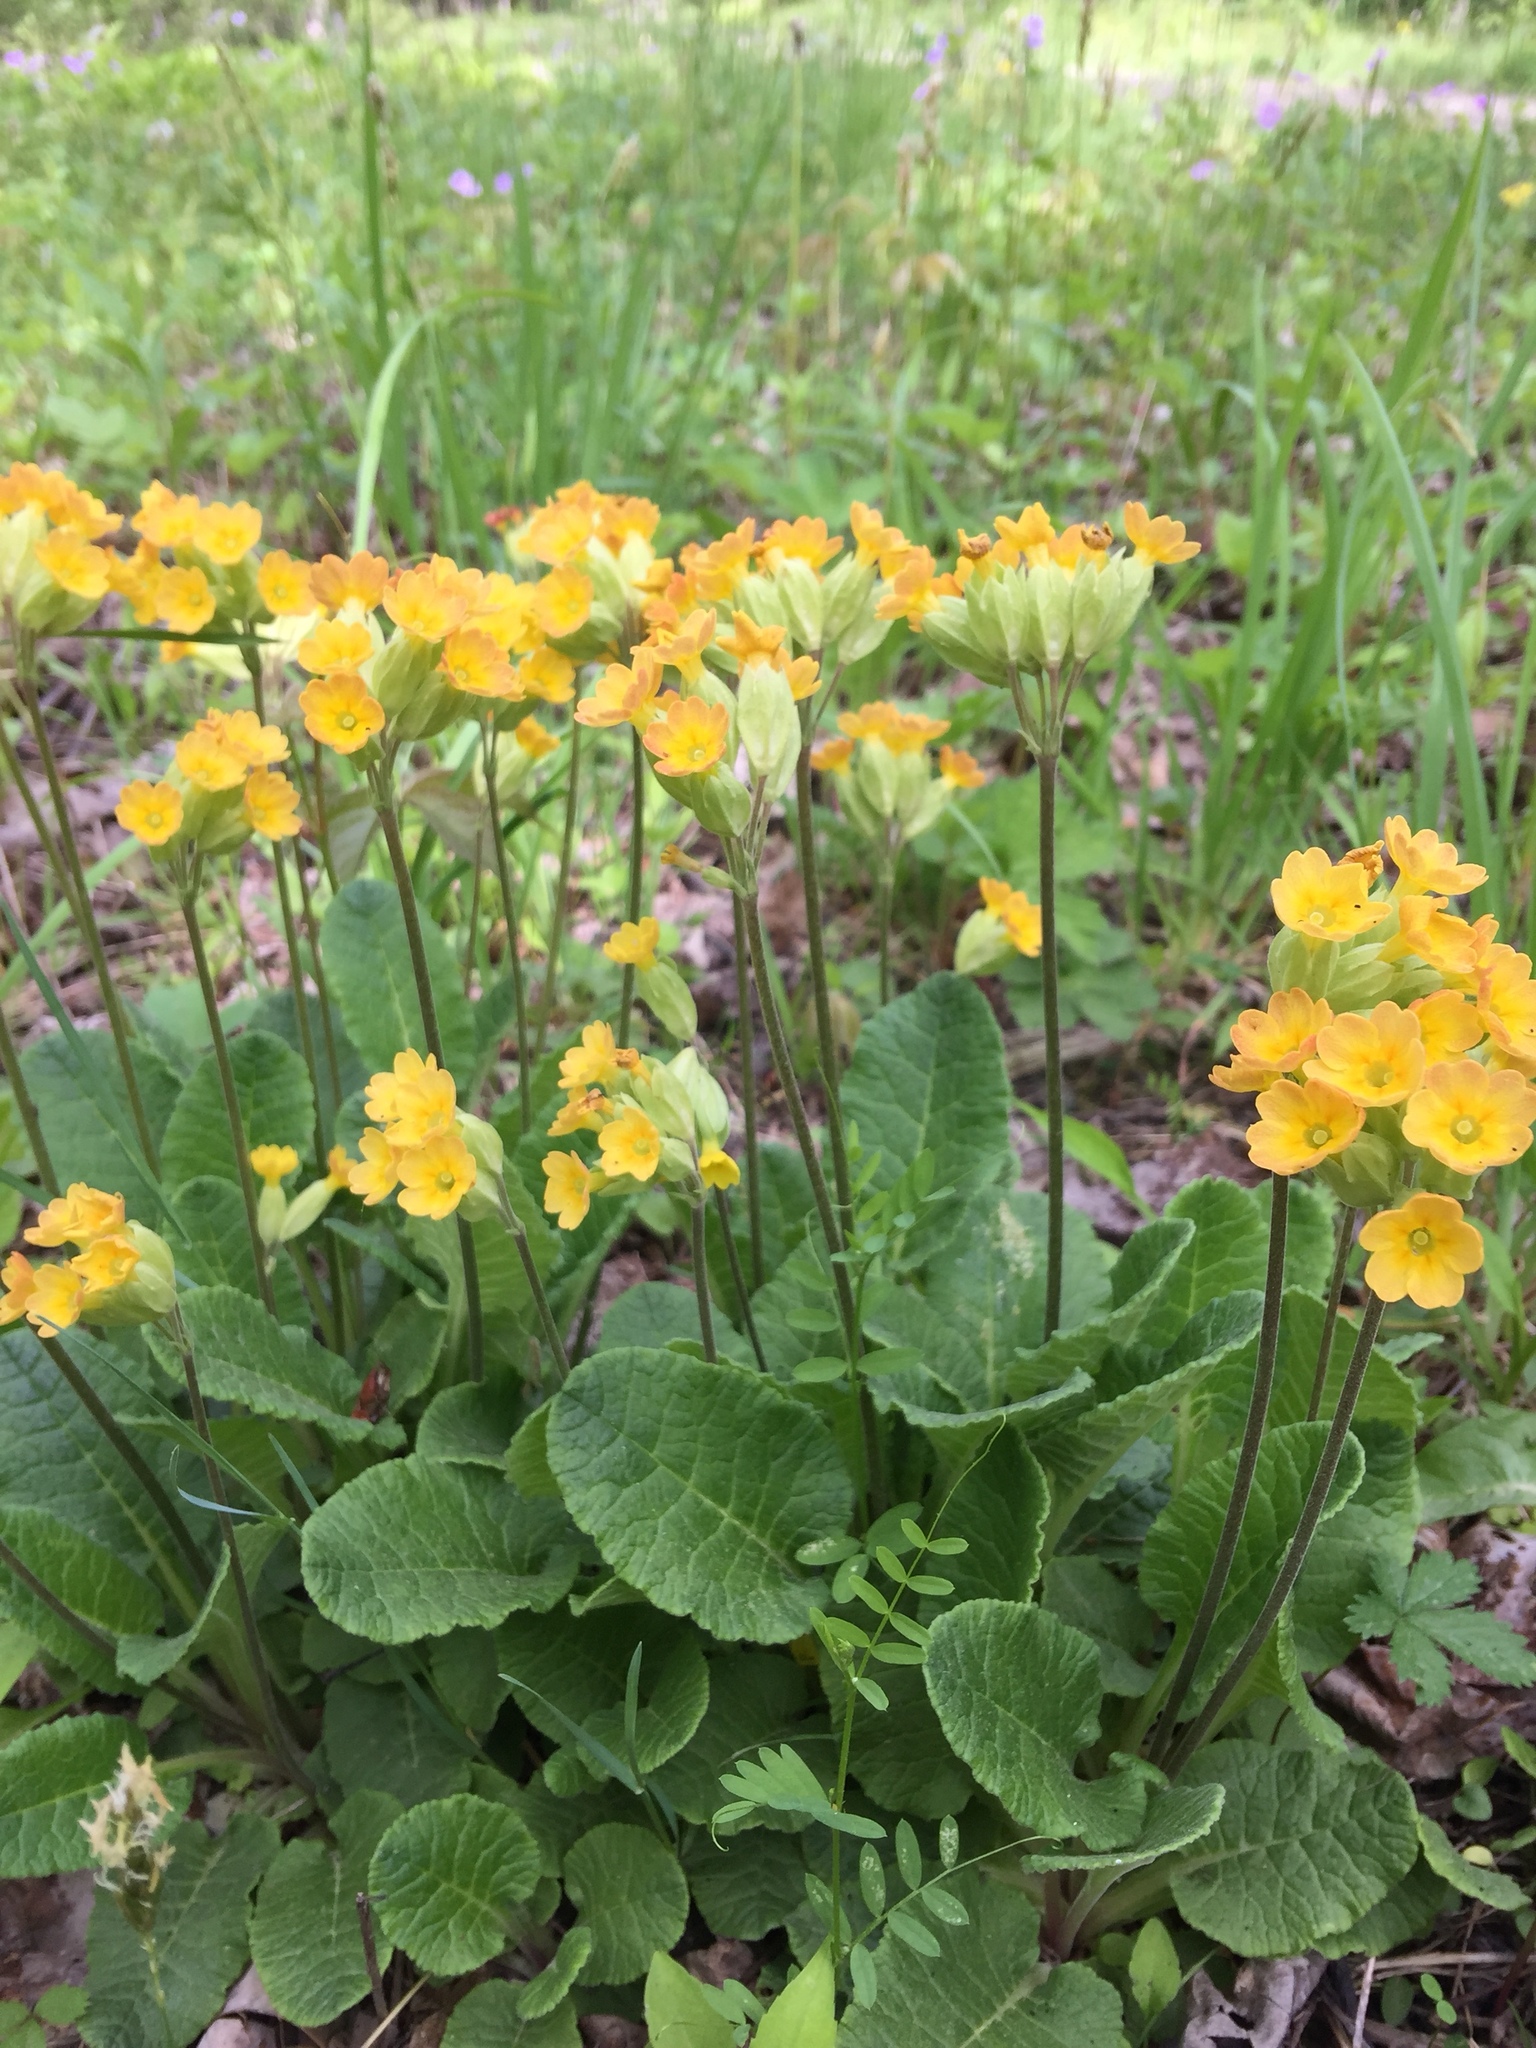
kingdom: Plantae
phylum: Tracheophyta
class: Magnoliopsida
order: Ericales
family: Primulaceae
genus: Primula
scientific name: Primula veris
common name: Cowslip
